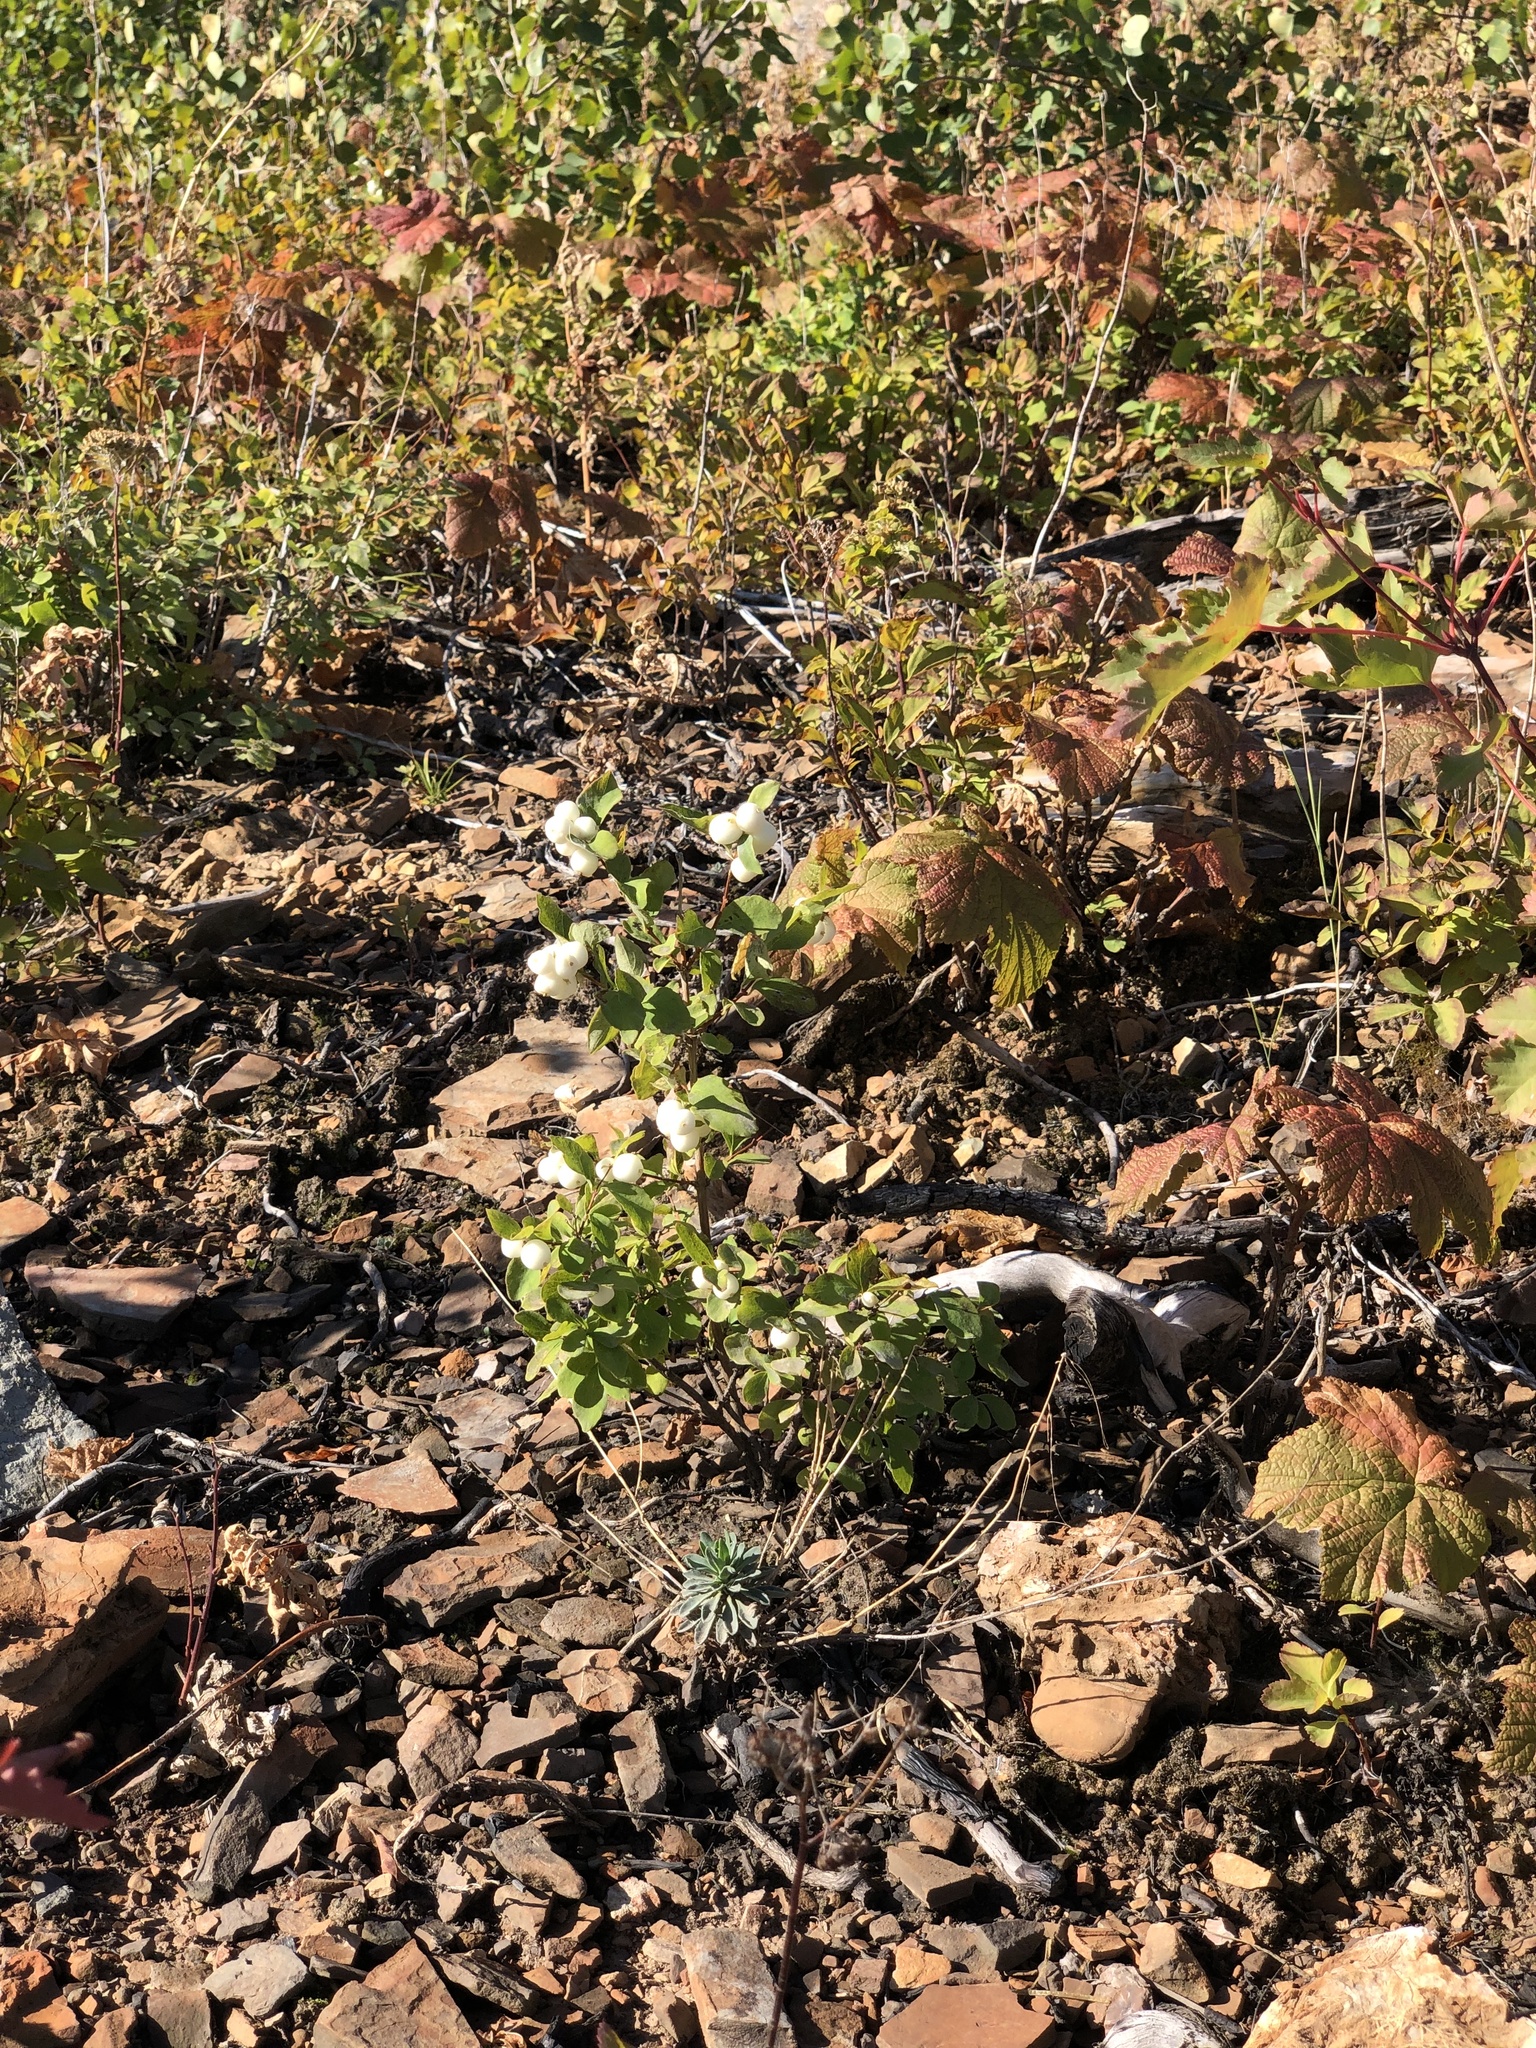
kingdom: Plantae
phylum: Tracheophyta
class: Magnoliopsida
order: Dipsacales
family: Caprifoliaceae
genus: Symphoricarpos
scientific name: Symphoricarpos albus
